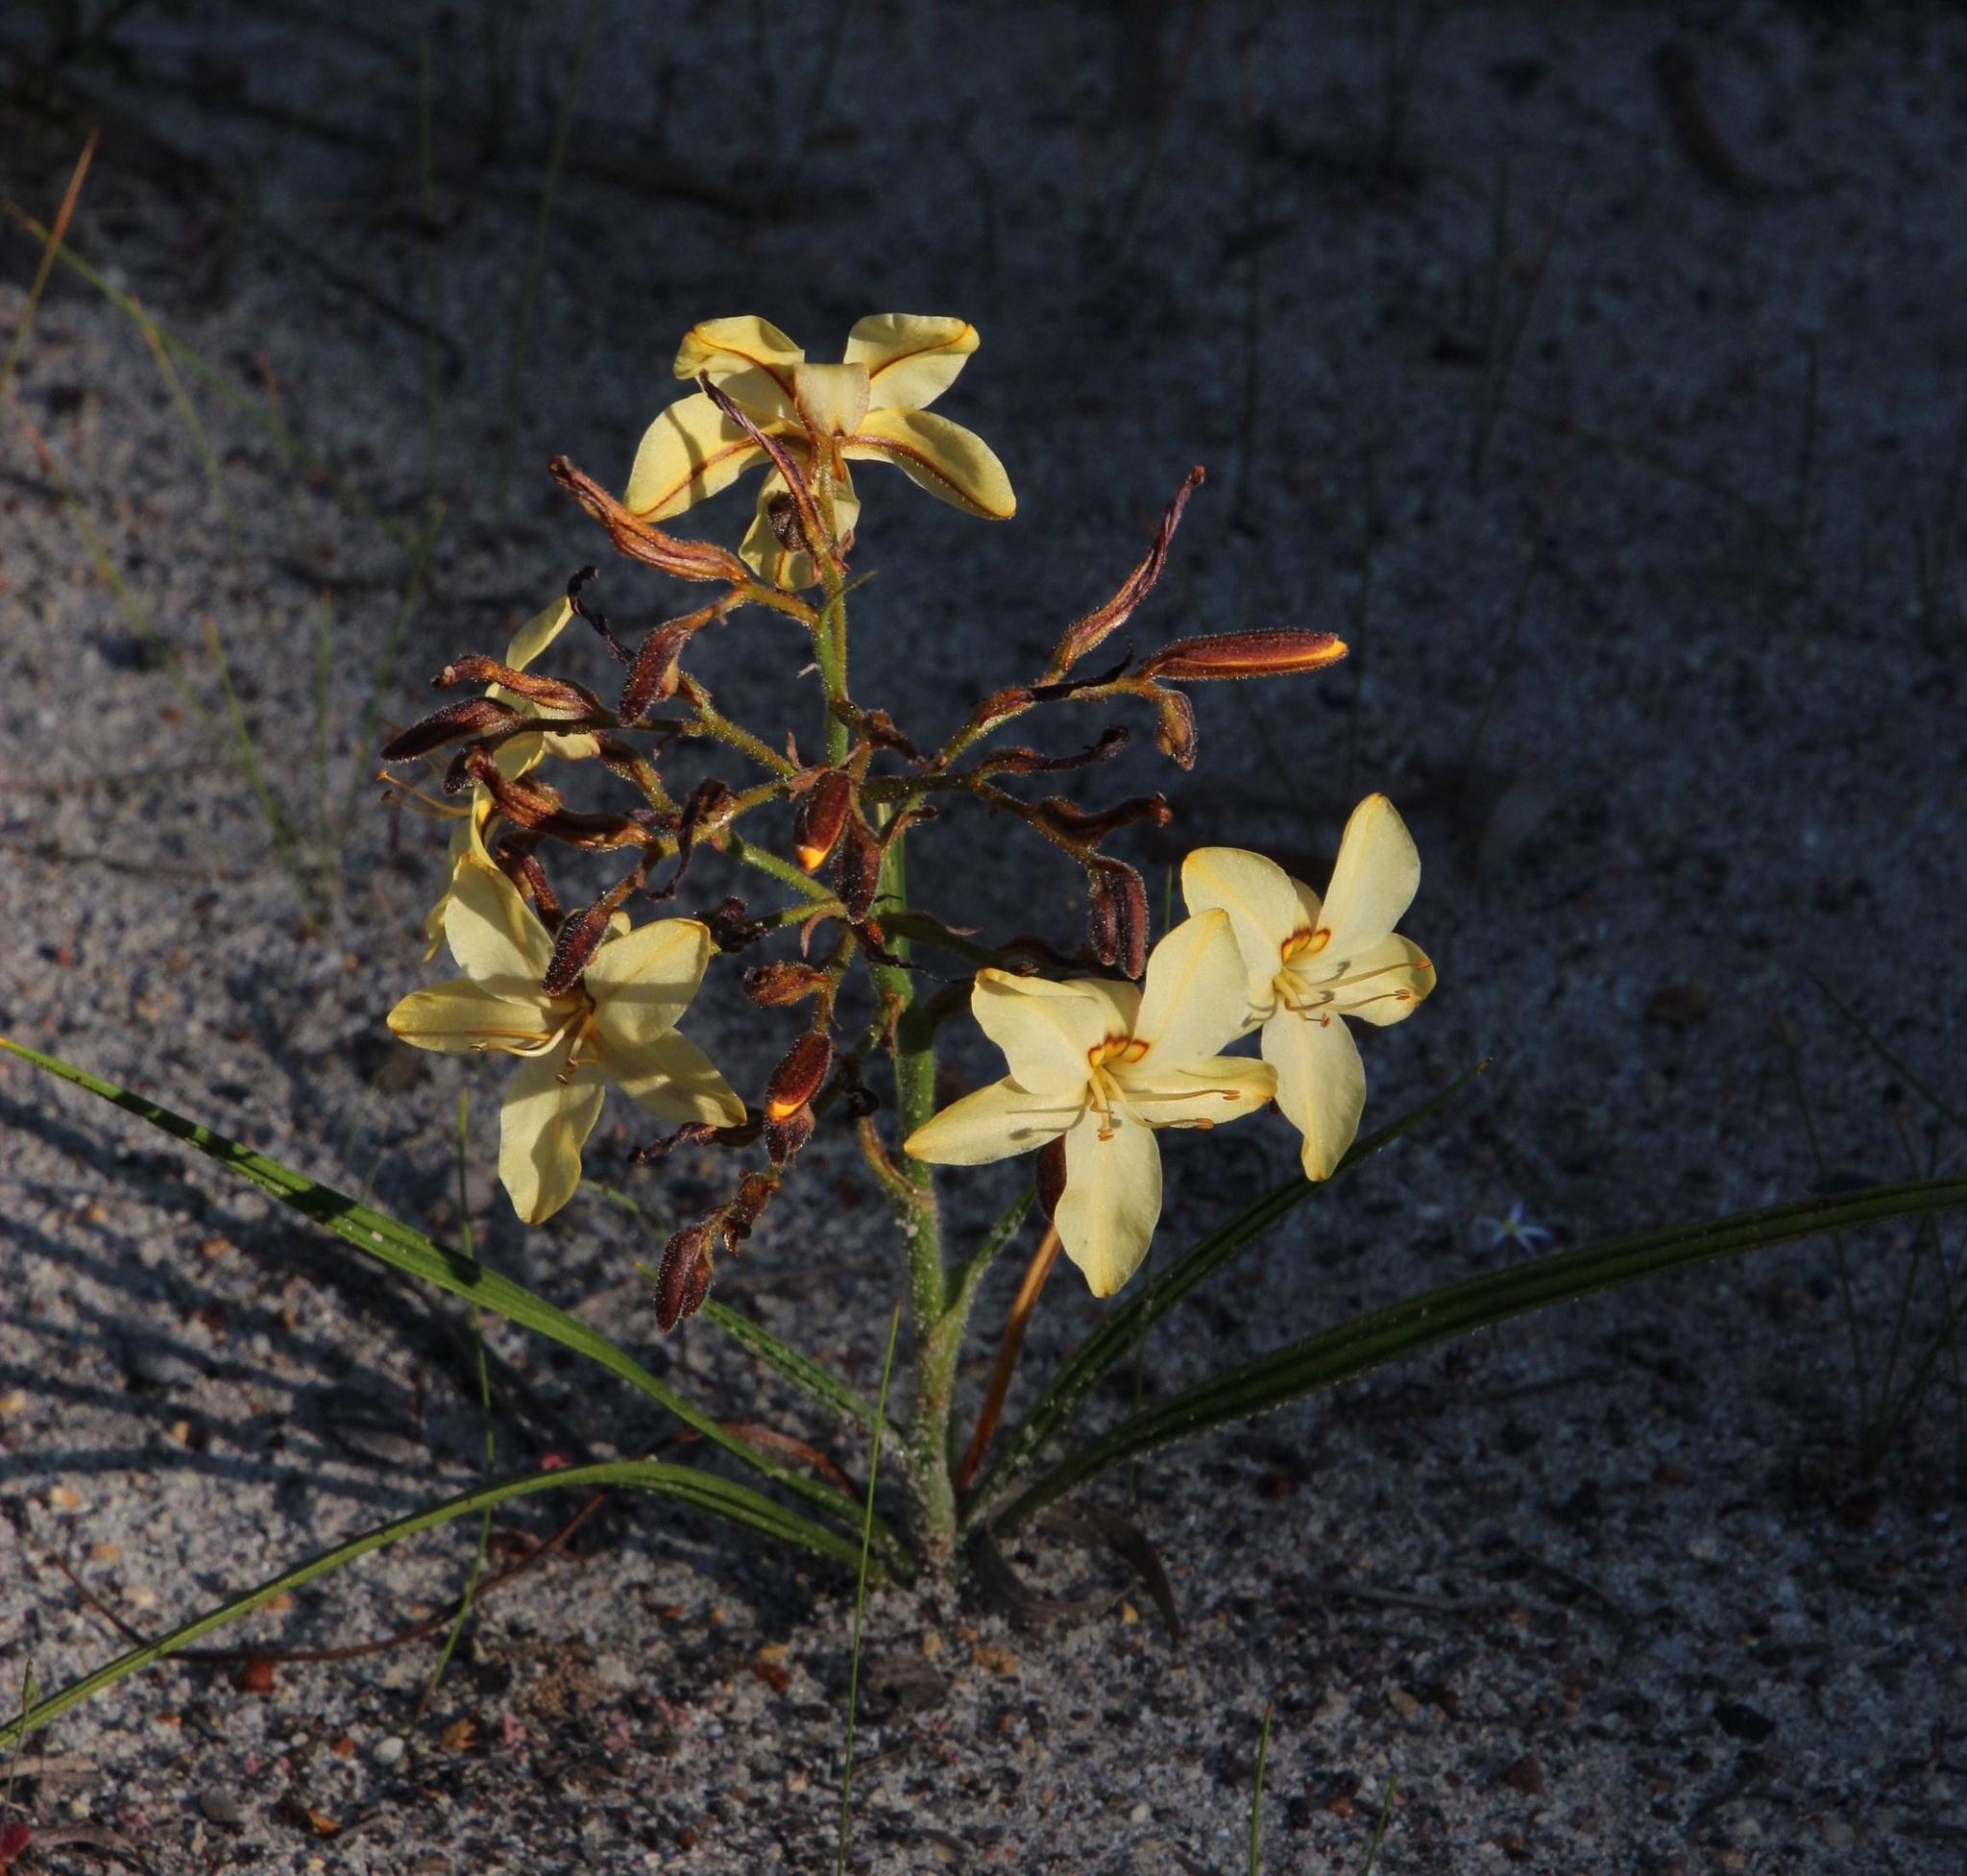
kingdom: Plantae
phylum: Tracheophyta
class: Liliopsida
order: Commelinales
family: Haemodoraceae
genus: Wachendorfia
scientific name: Wachendorfia paniculata
